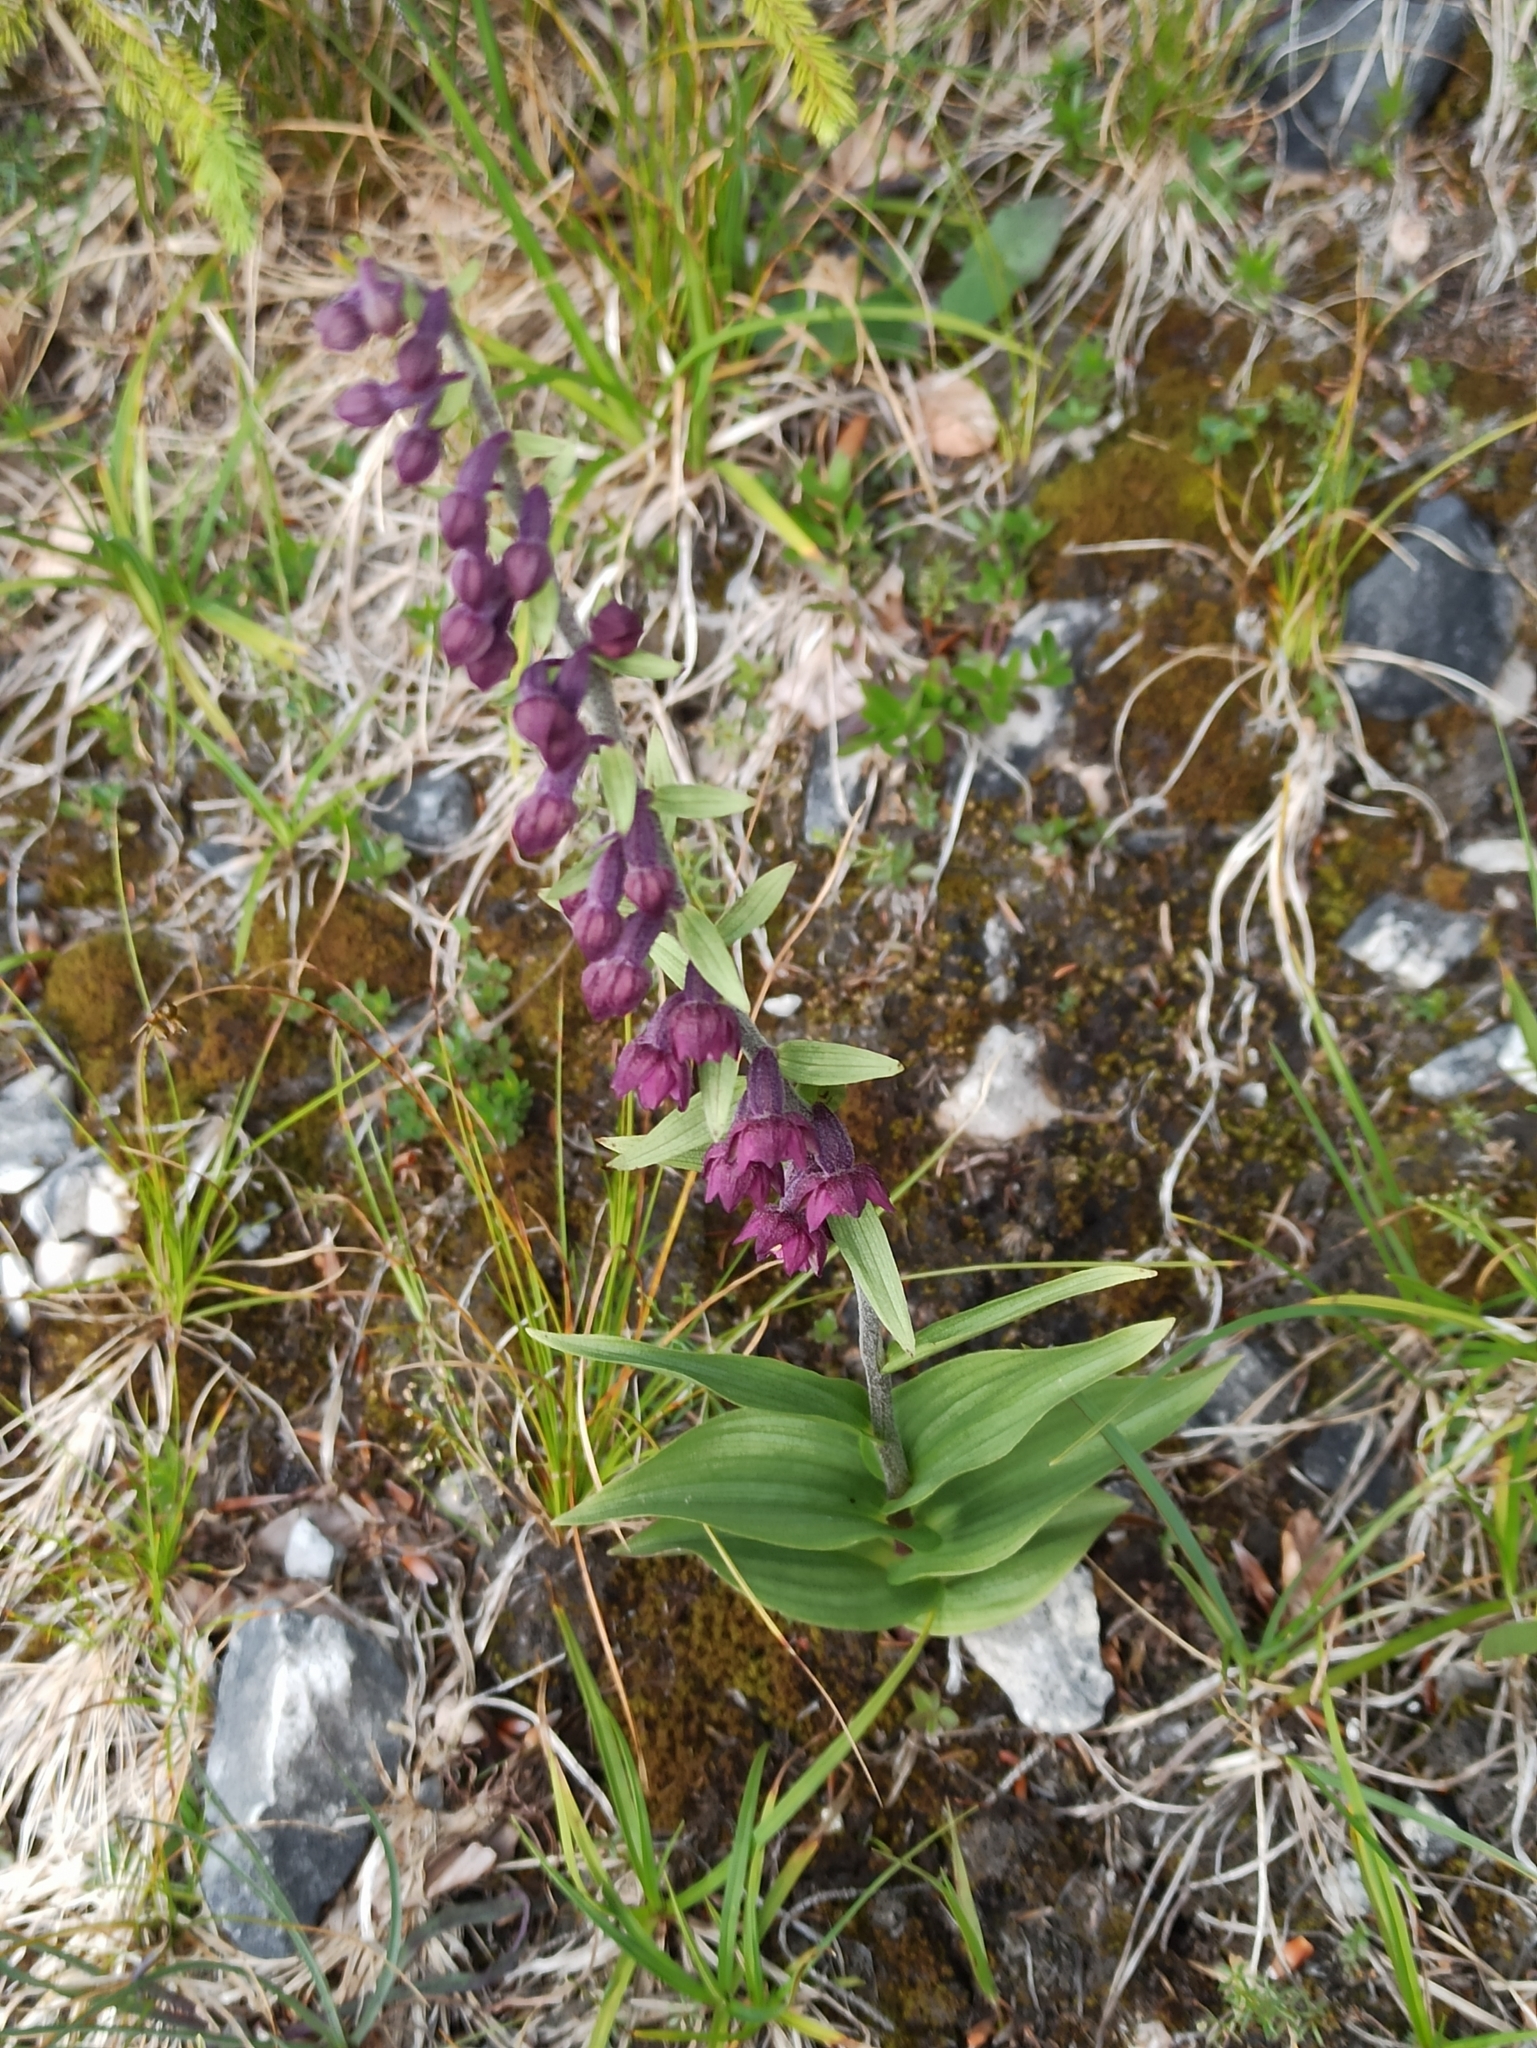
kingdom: Plantae
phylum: Tracheophyta
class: Liliopsida
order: Asparagales
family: Orchidaceae
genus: Epipactis
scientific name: Epipactis atrorubens
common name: Dark-red helleborine
